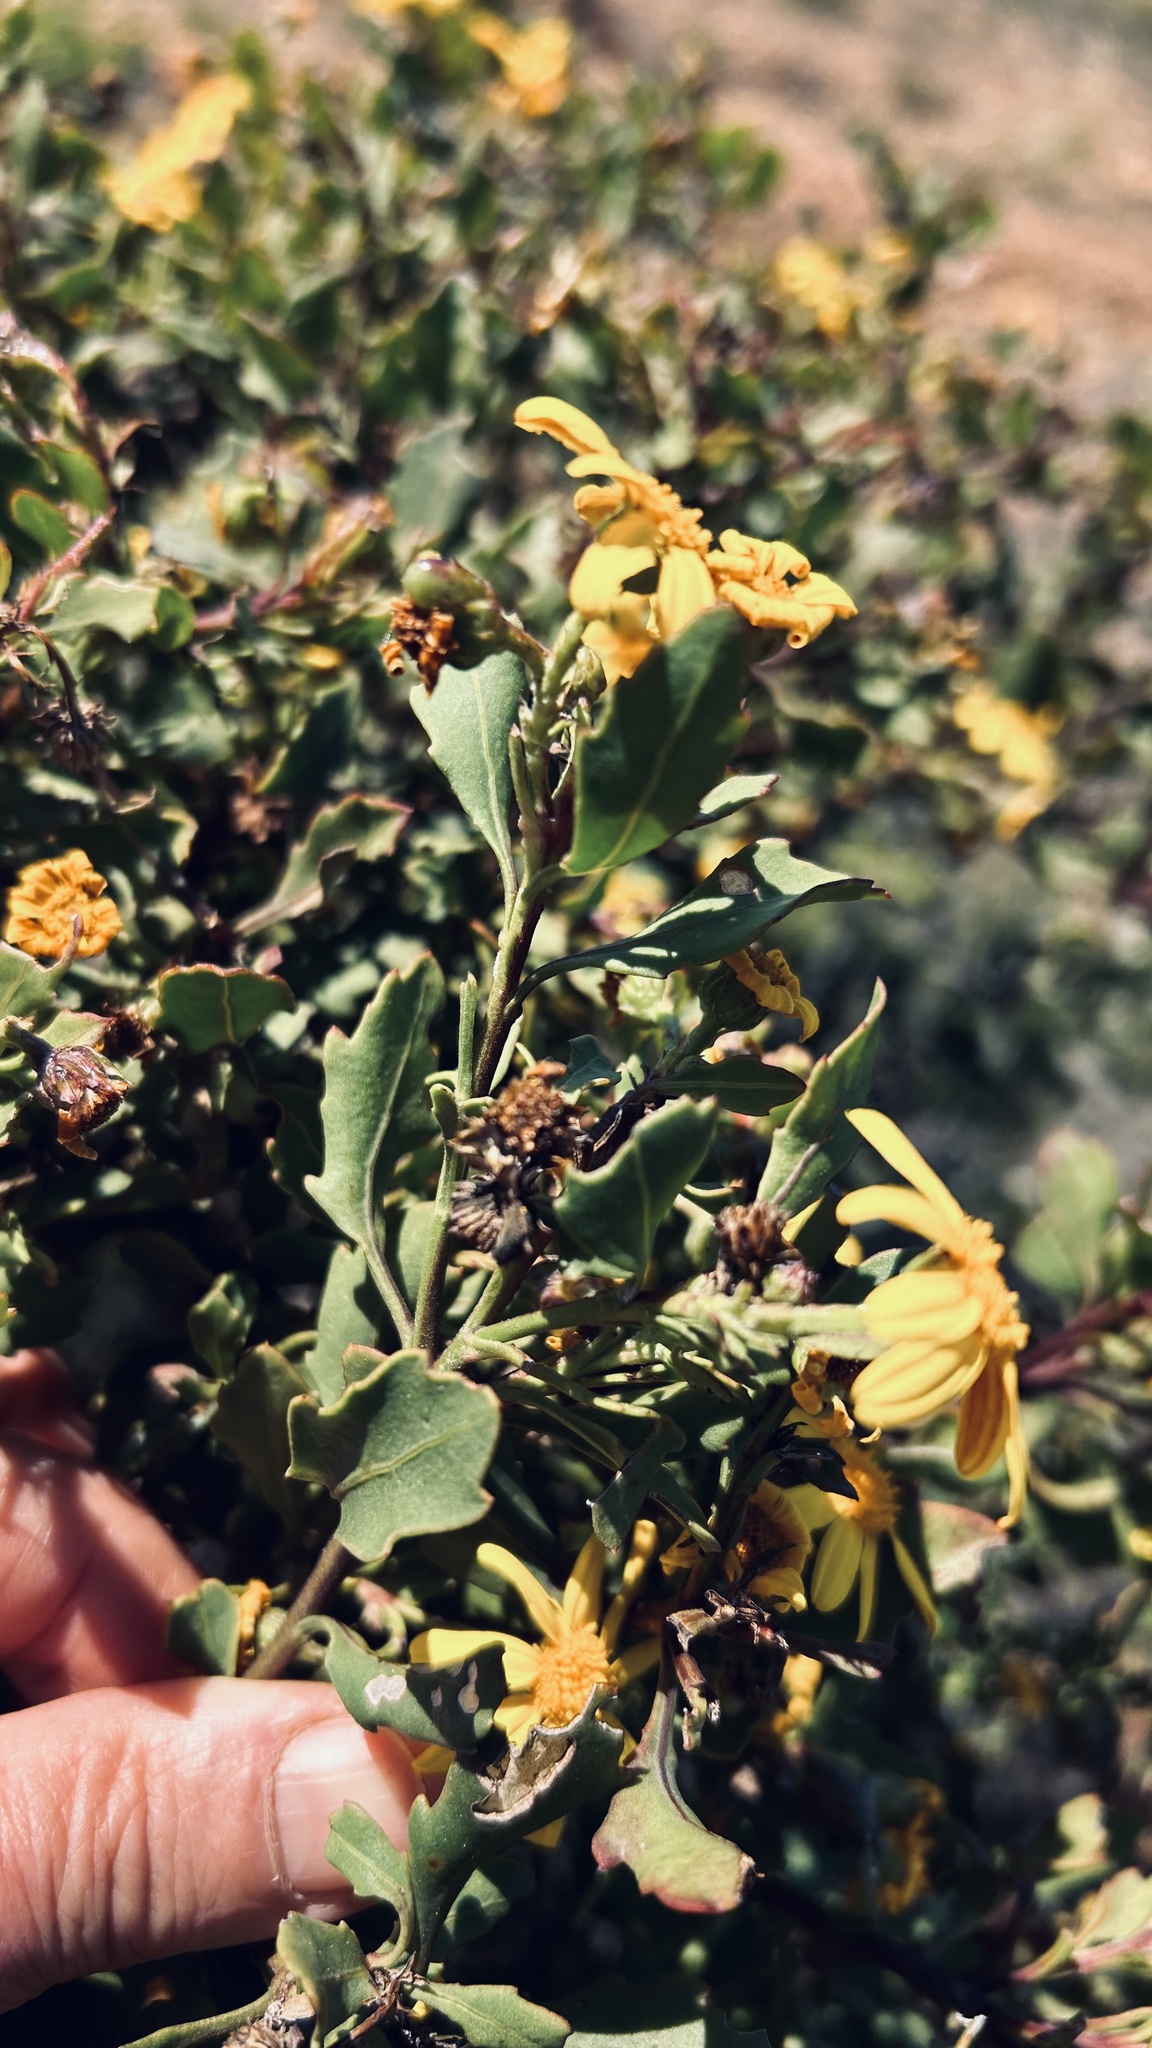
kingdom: Plantae
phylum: Tracheophyta
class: Magnoliopsida
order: Asterales
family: Asteraceae
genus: Osteospermum
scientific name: Osteospermum moniliferum
